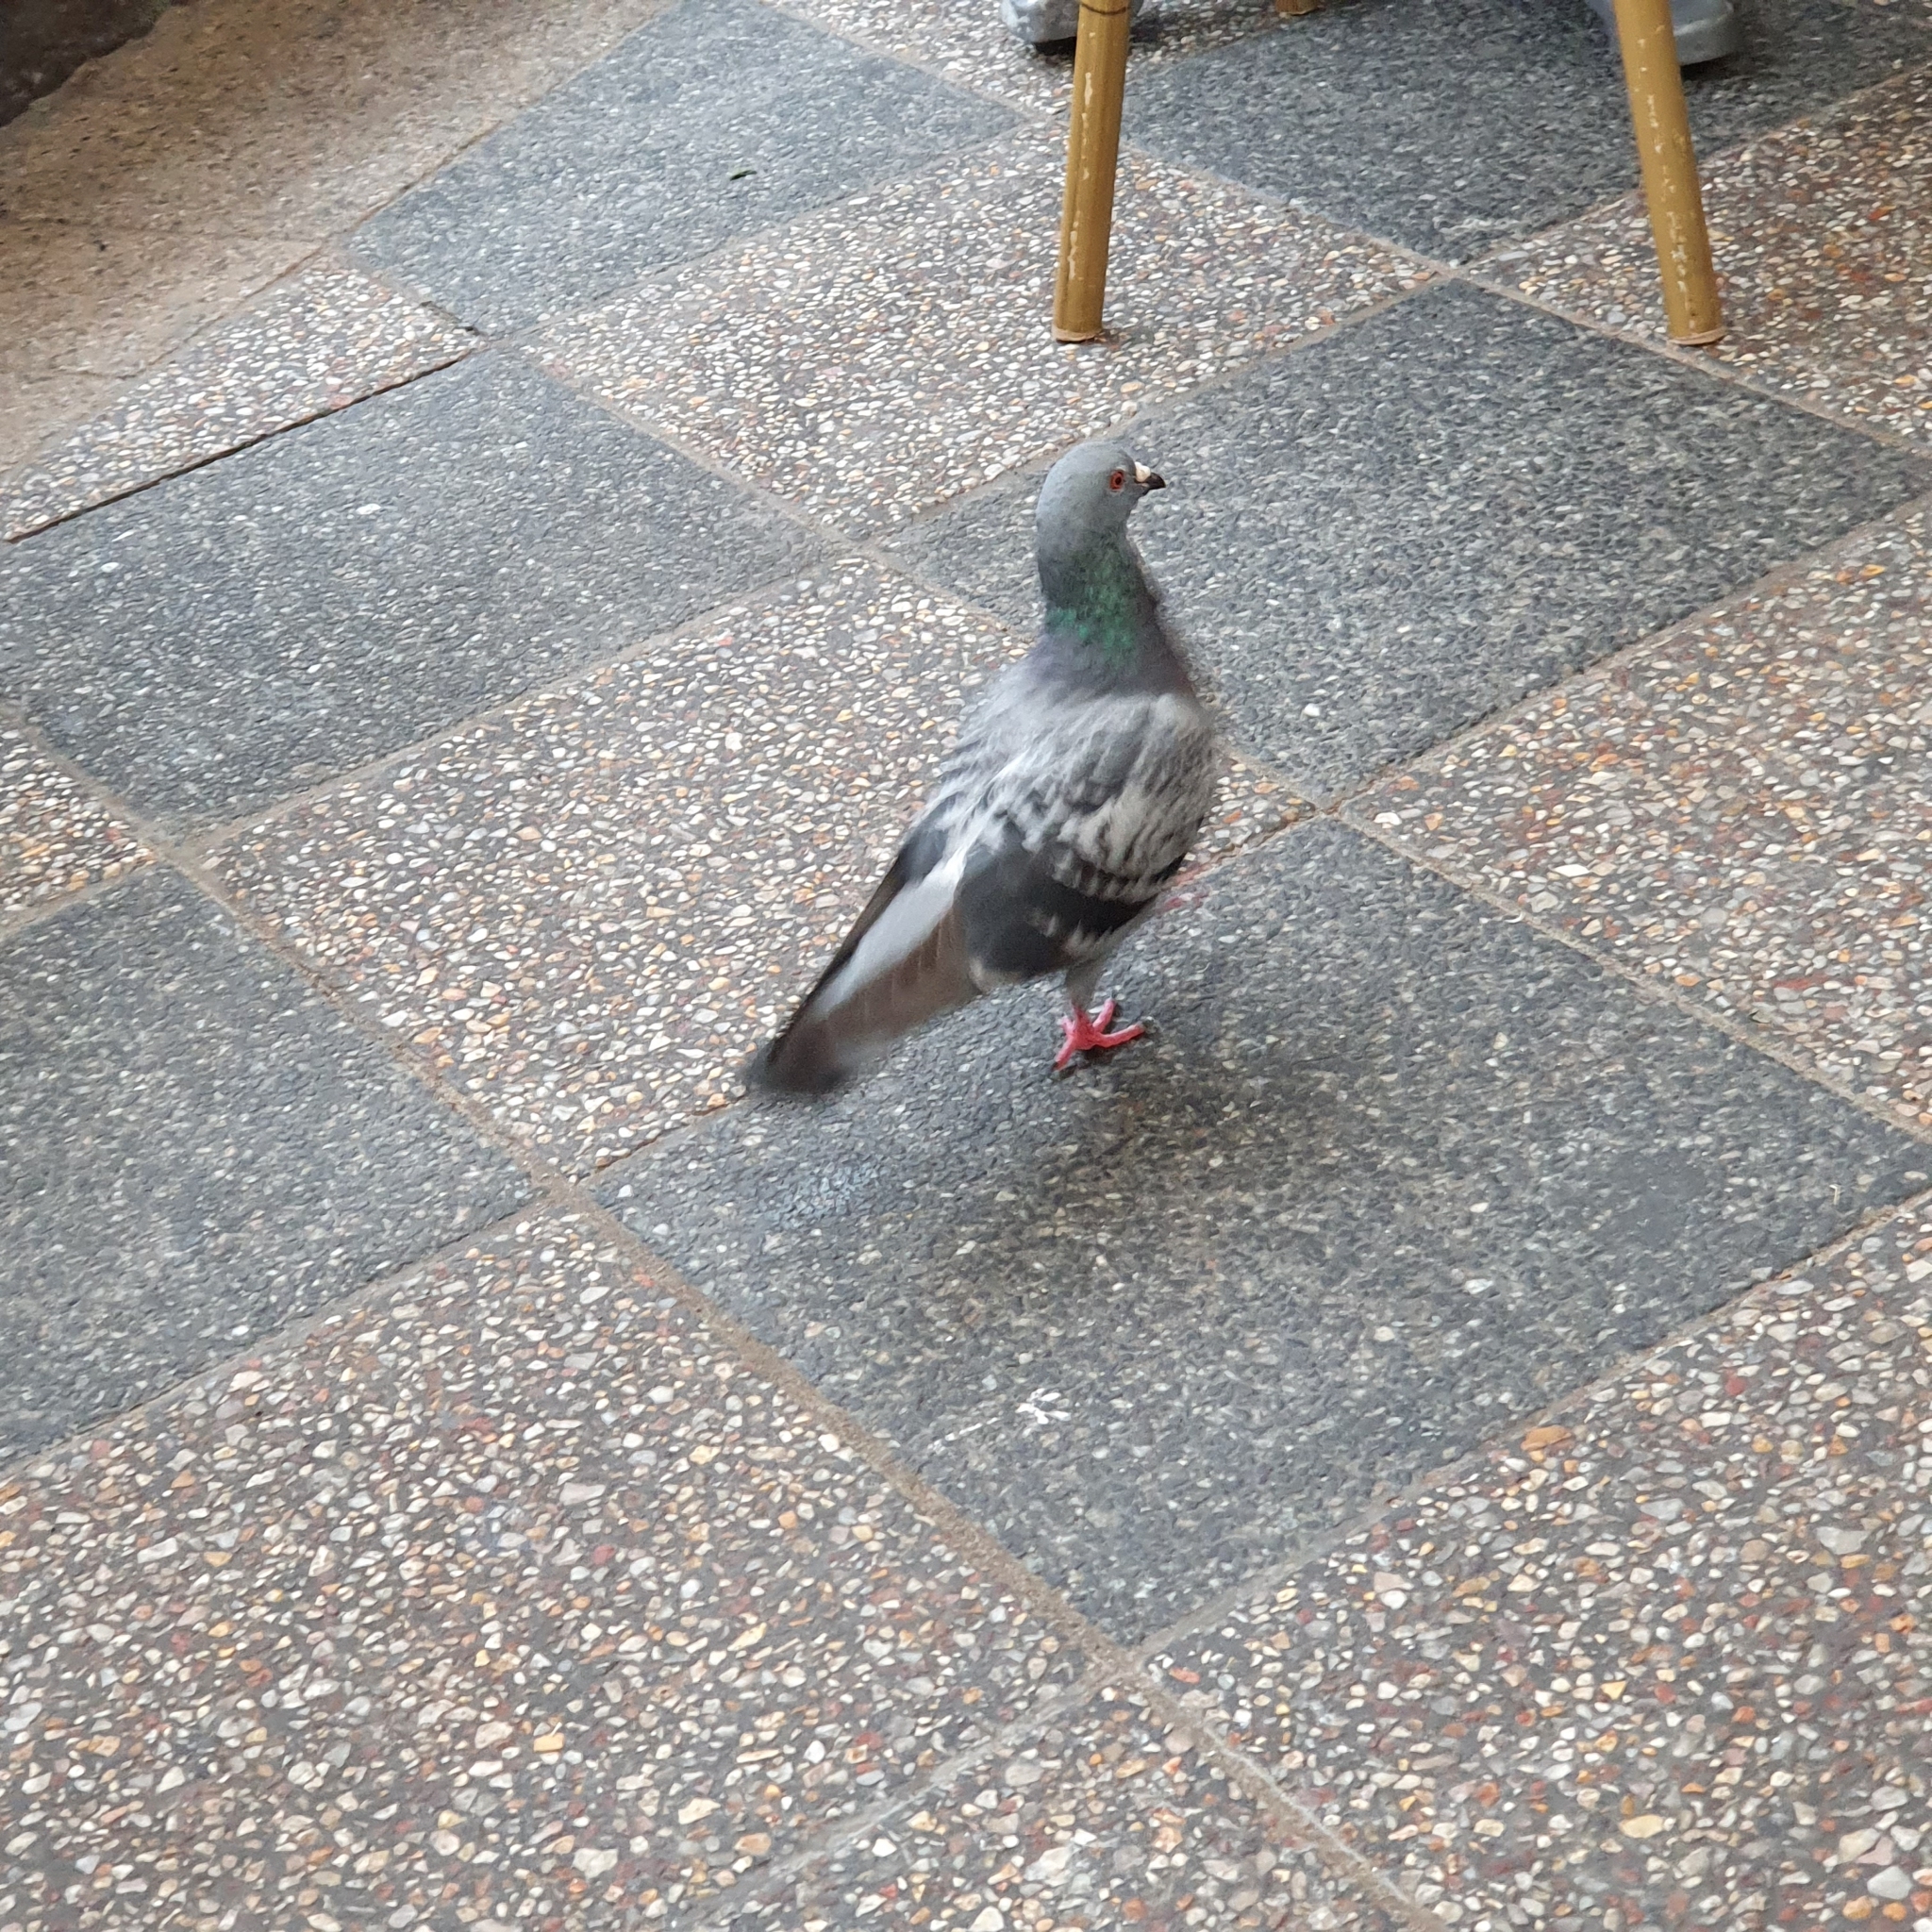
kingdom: Animalia
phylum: Chordata
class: Aves
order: Columbiformes
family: Columbidae
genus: Columba
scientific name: Columba livia
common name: Rock pigeon
